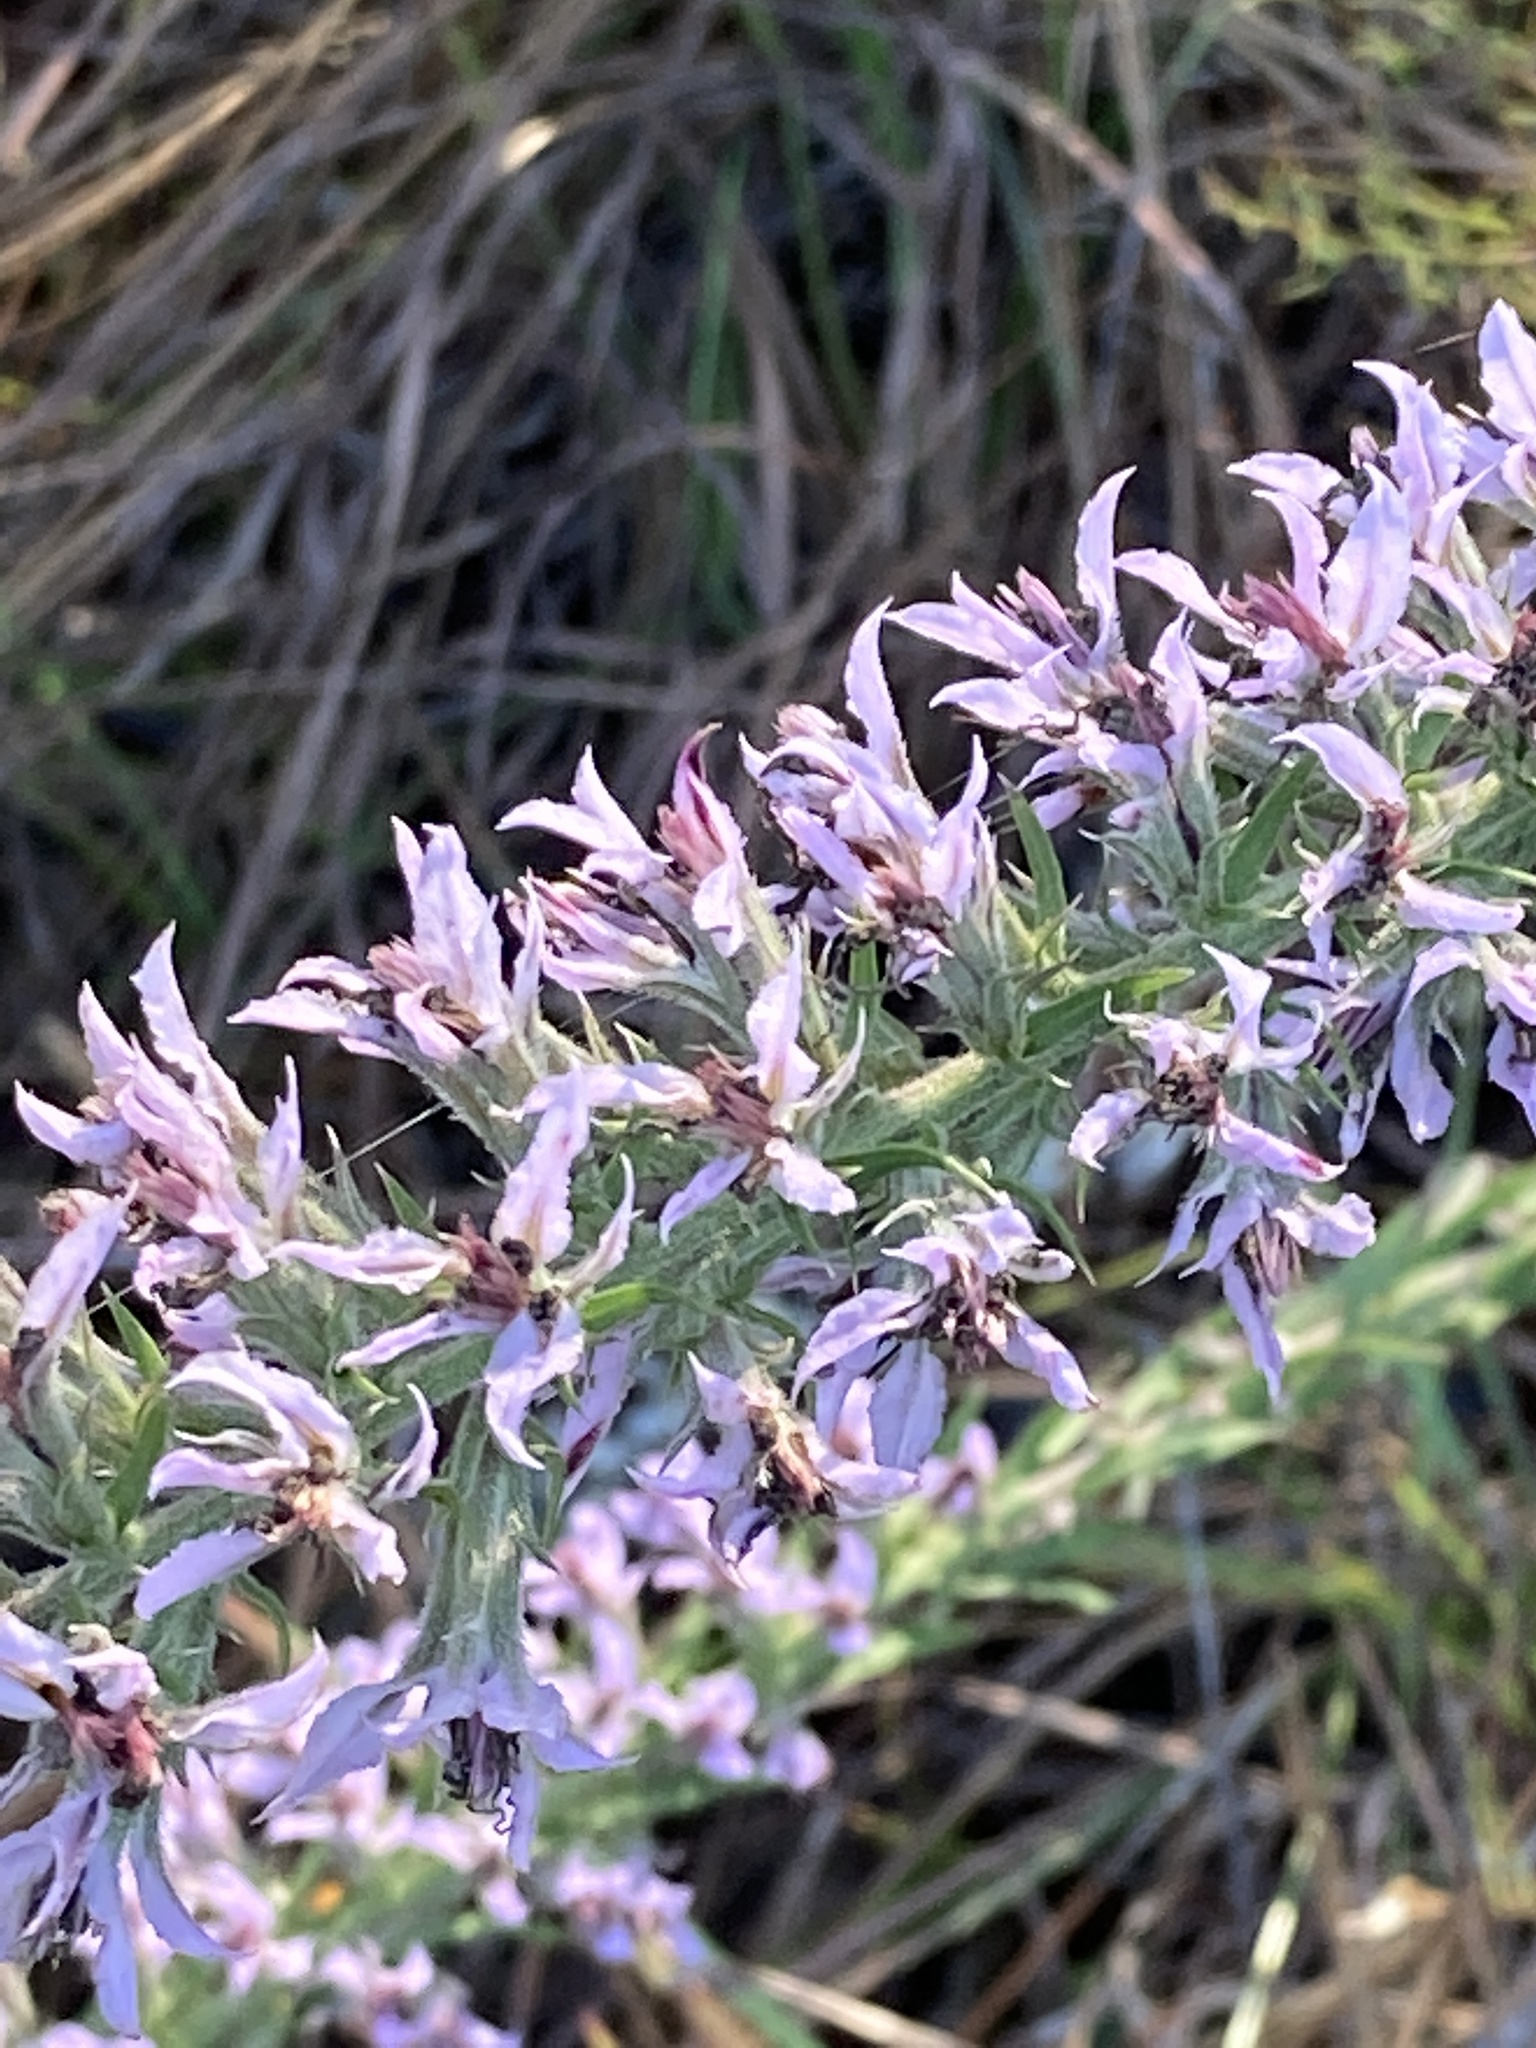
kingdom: Plantae
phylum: Tracheophyta
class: Magnoliopsida
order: Asterales
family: Asteraceae
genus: Liatris
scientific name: Liatris elegans
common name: Pinkscale gayfeather
